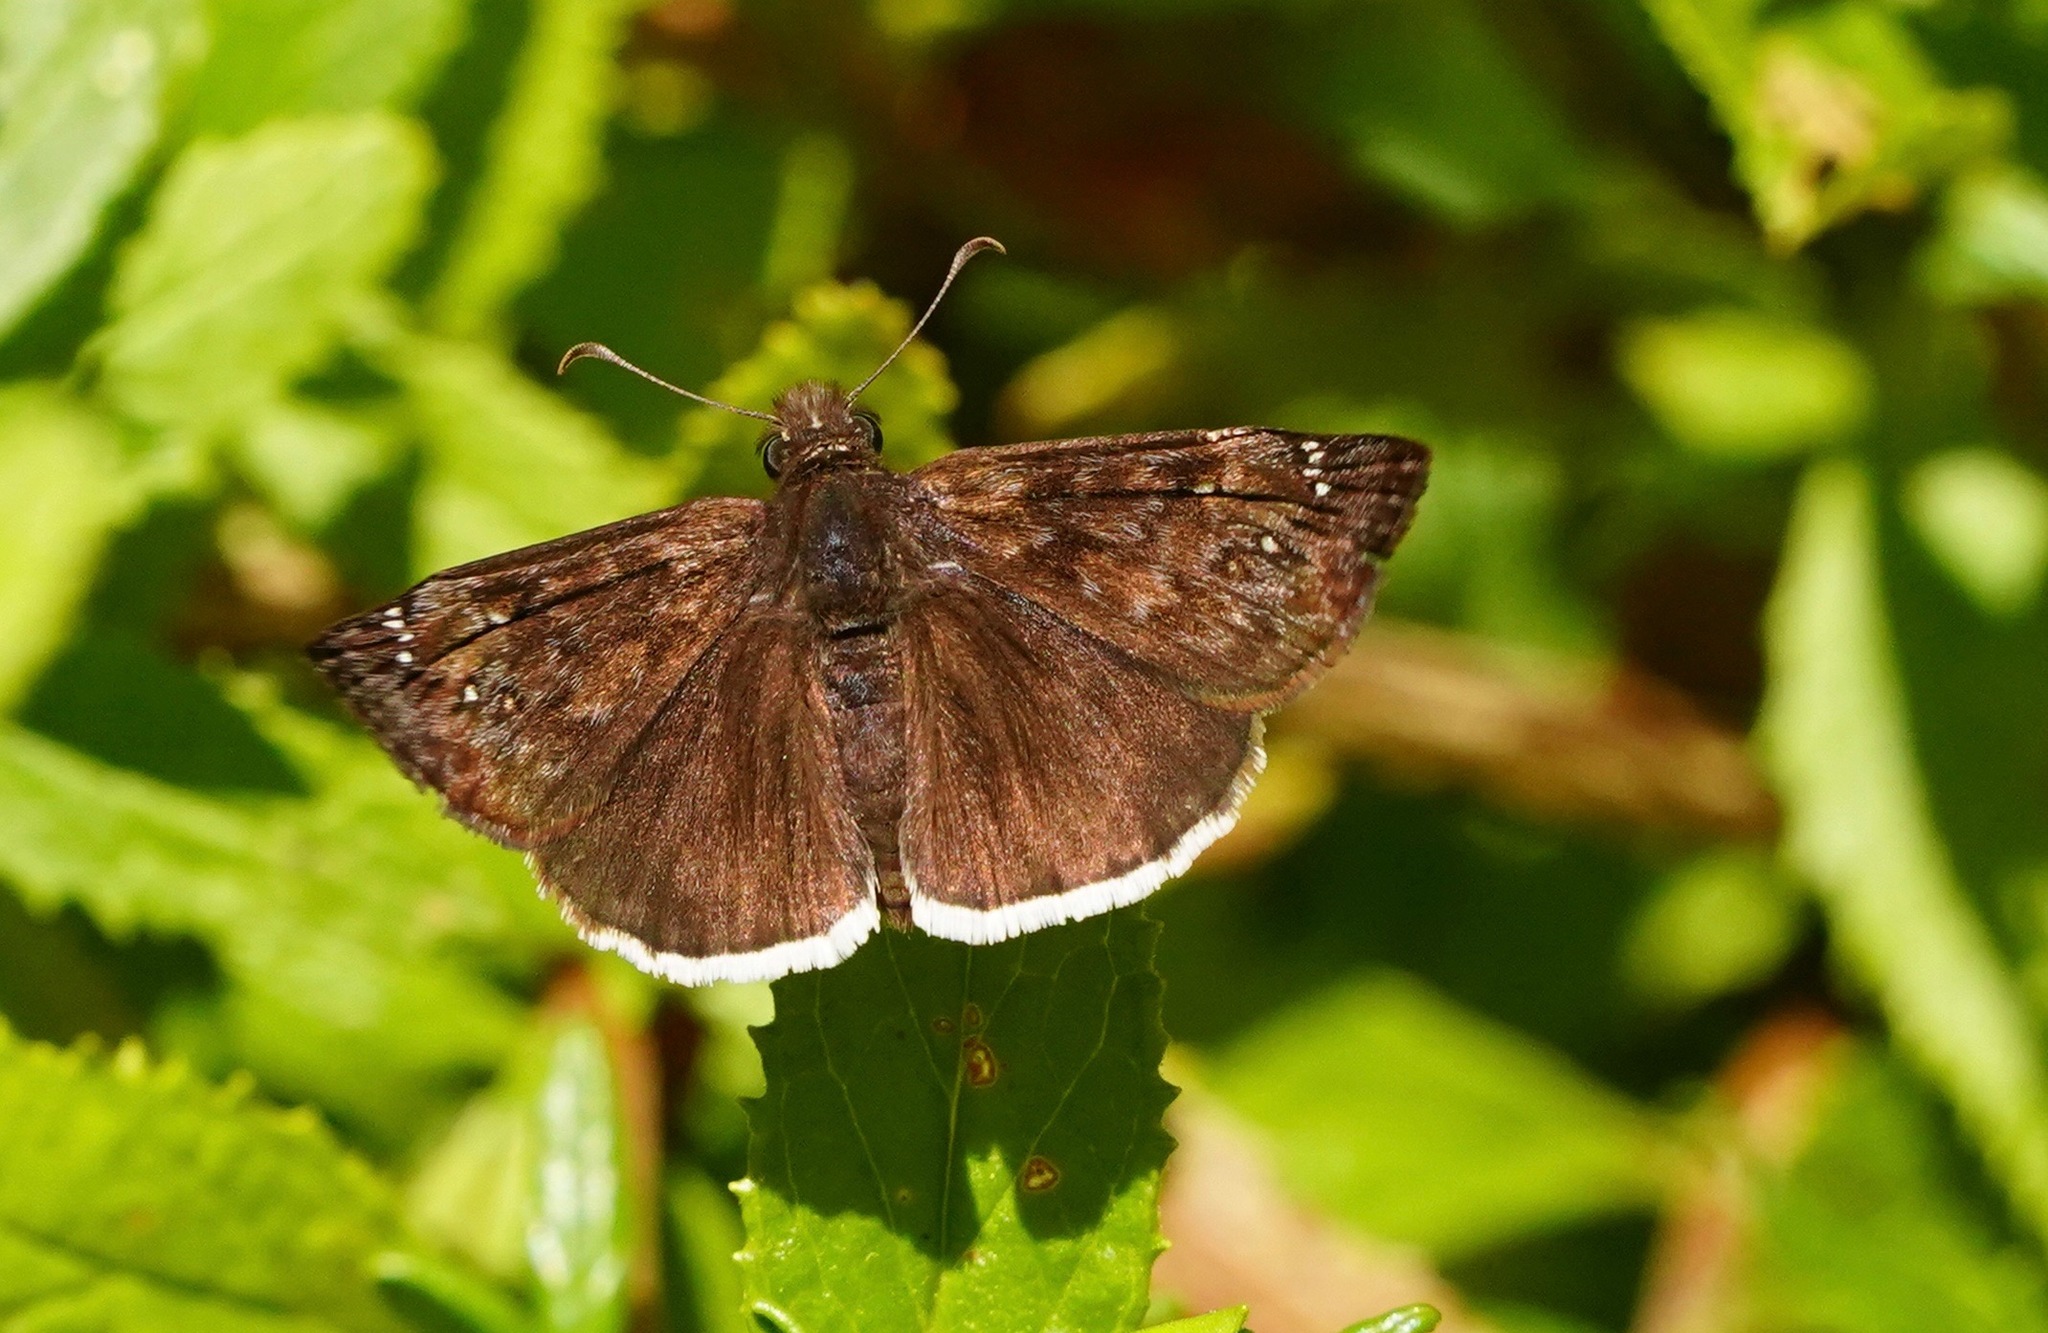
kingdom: Animalia
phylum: Arthropoda
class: Insecta
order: Lepidoptera
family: Hesperiidae
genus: Erynnis
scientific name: Erynnis tristis
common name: Mournful duskywing
